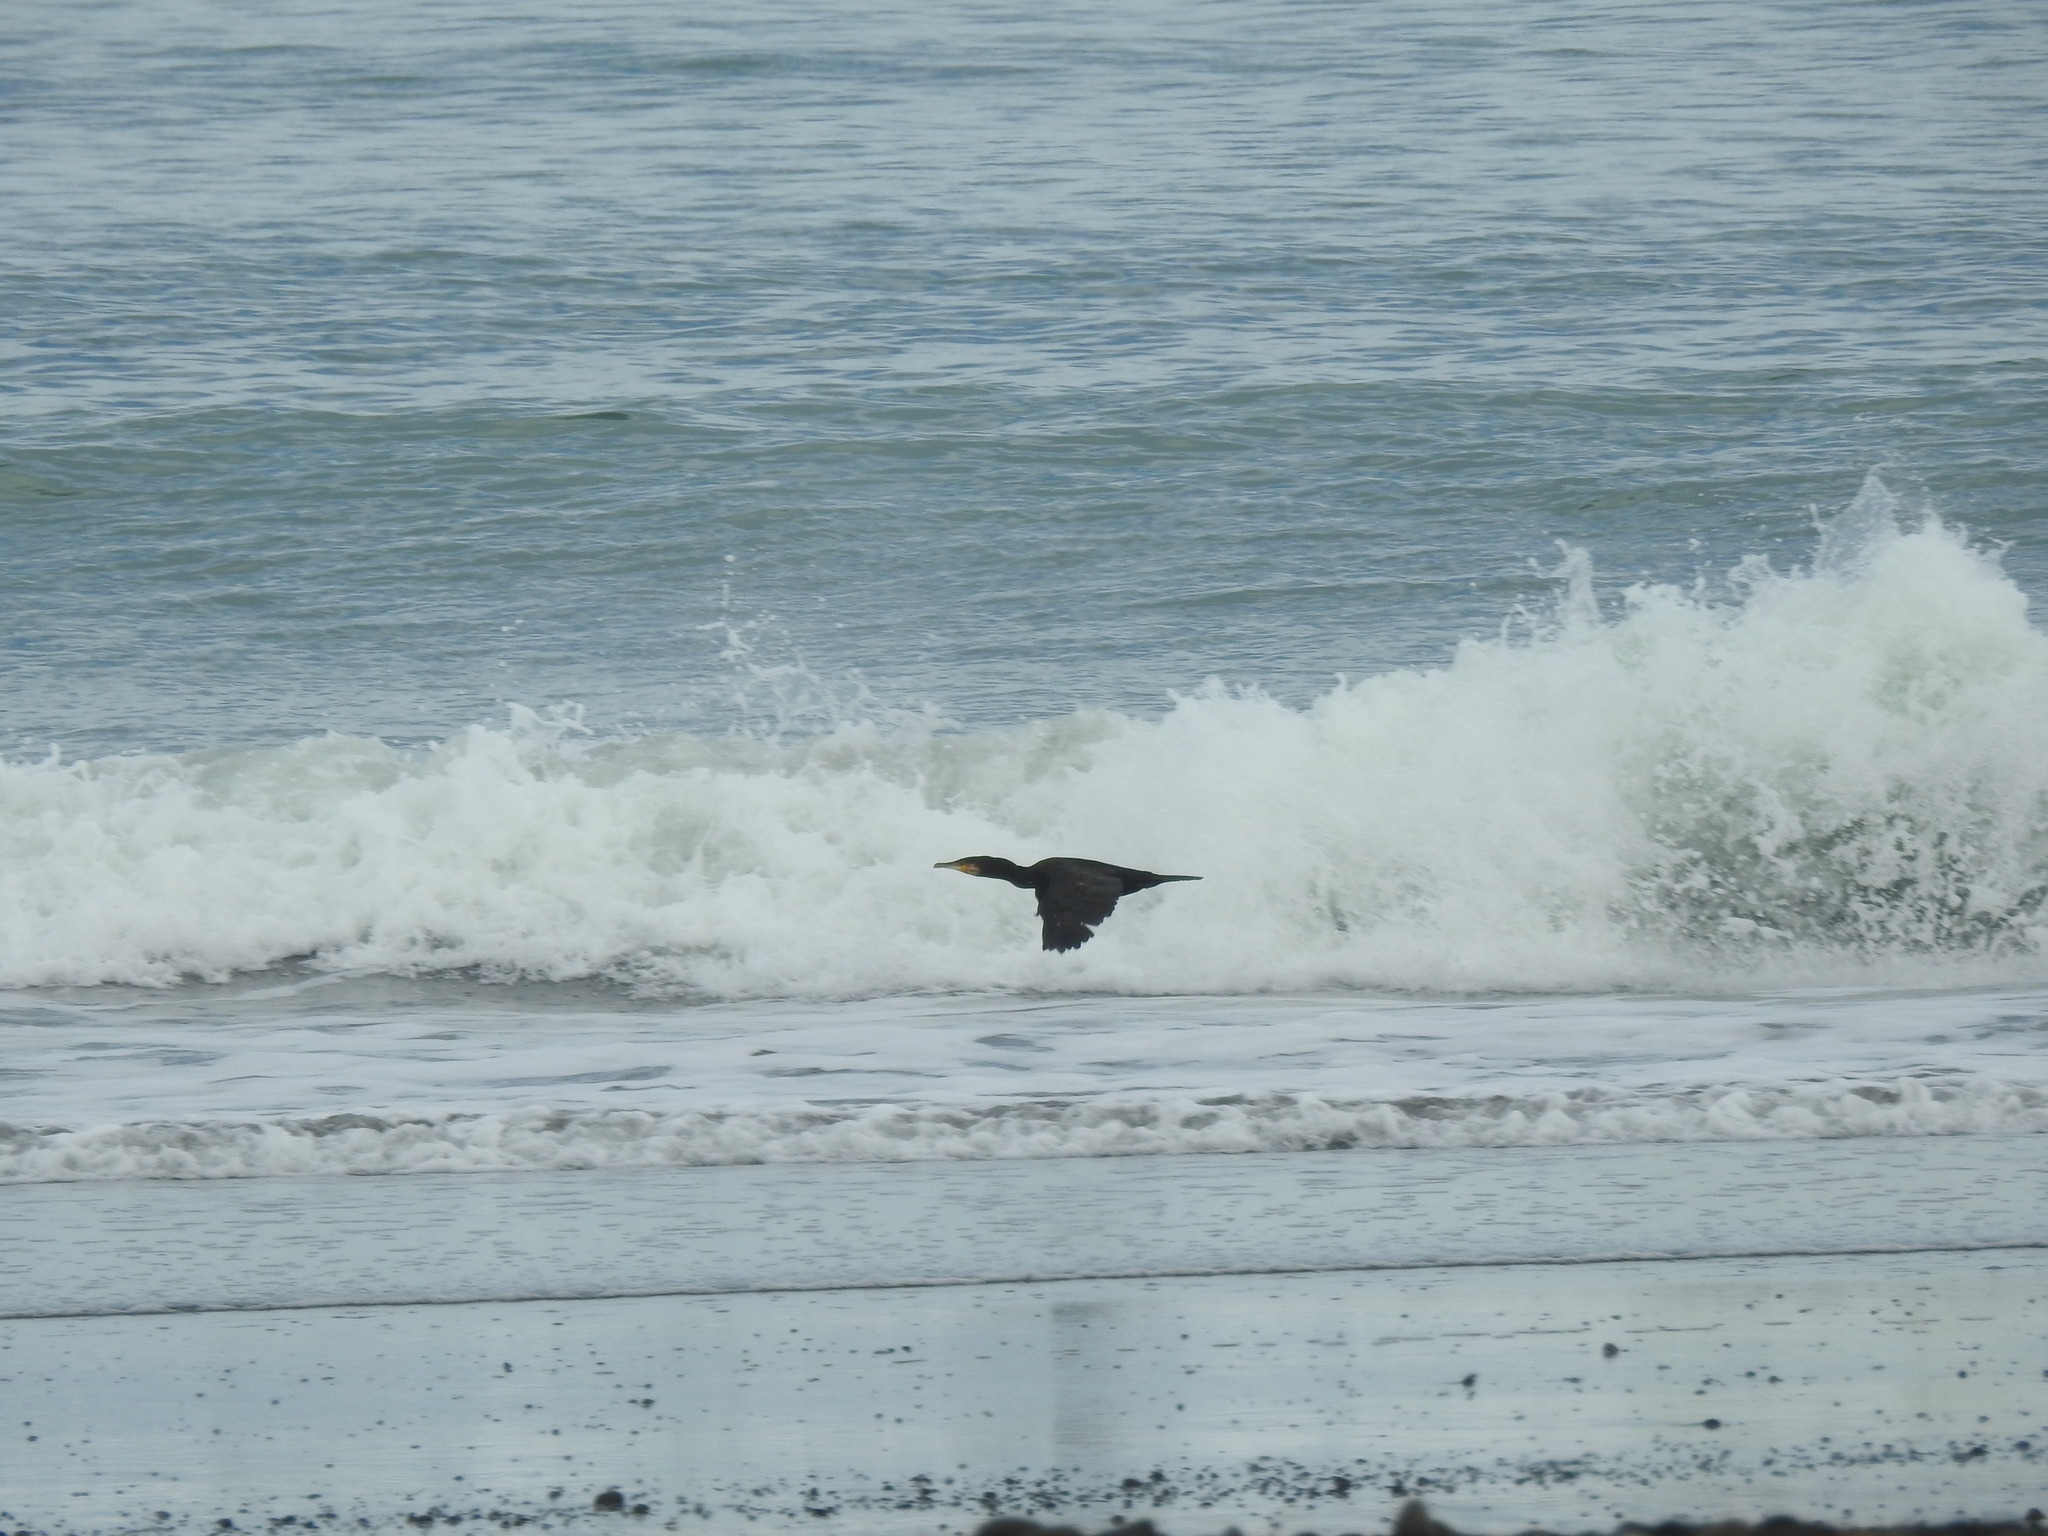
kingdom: Animalia
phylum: Chordata
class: Aves
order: Suliformes
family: Phalacrocoracidae
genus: Phalacrocorax
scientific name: Phalacrocorax carbo
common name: Great cormorant
